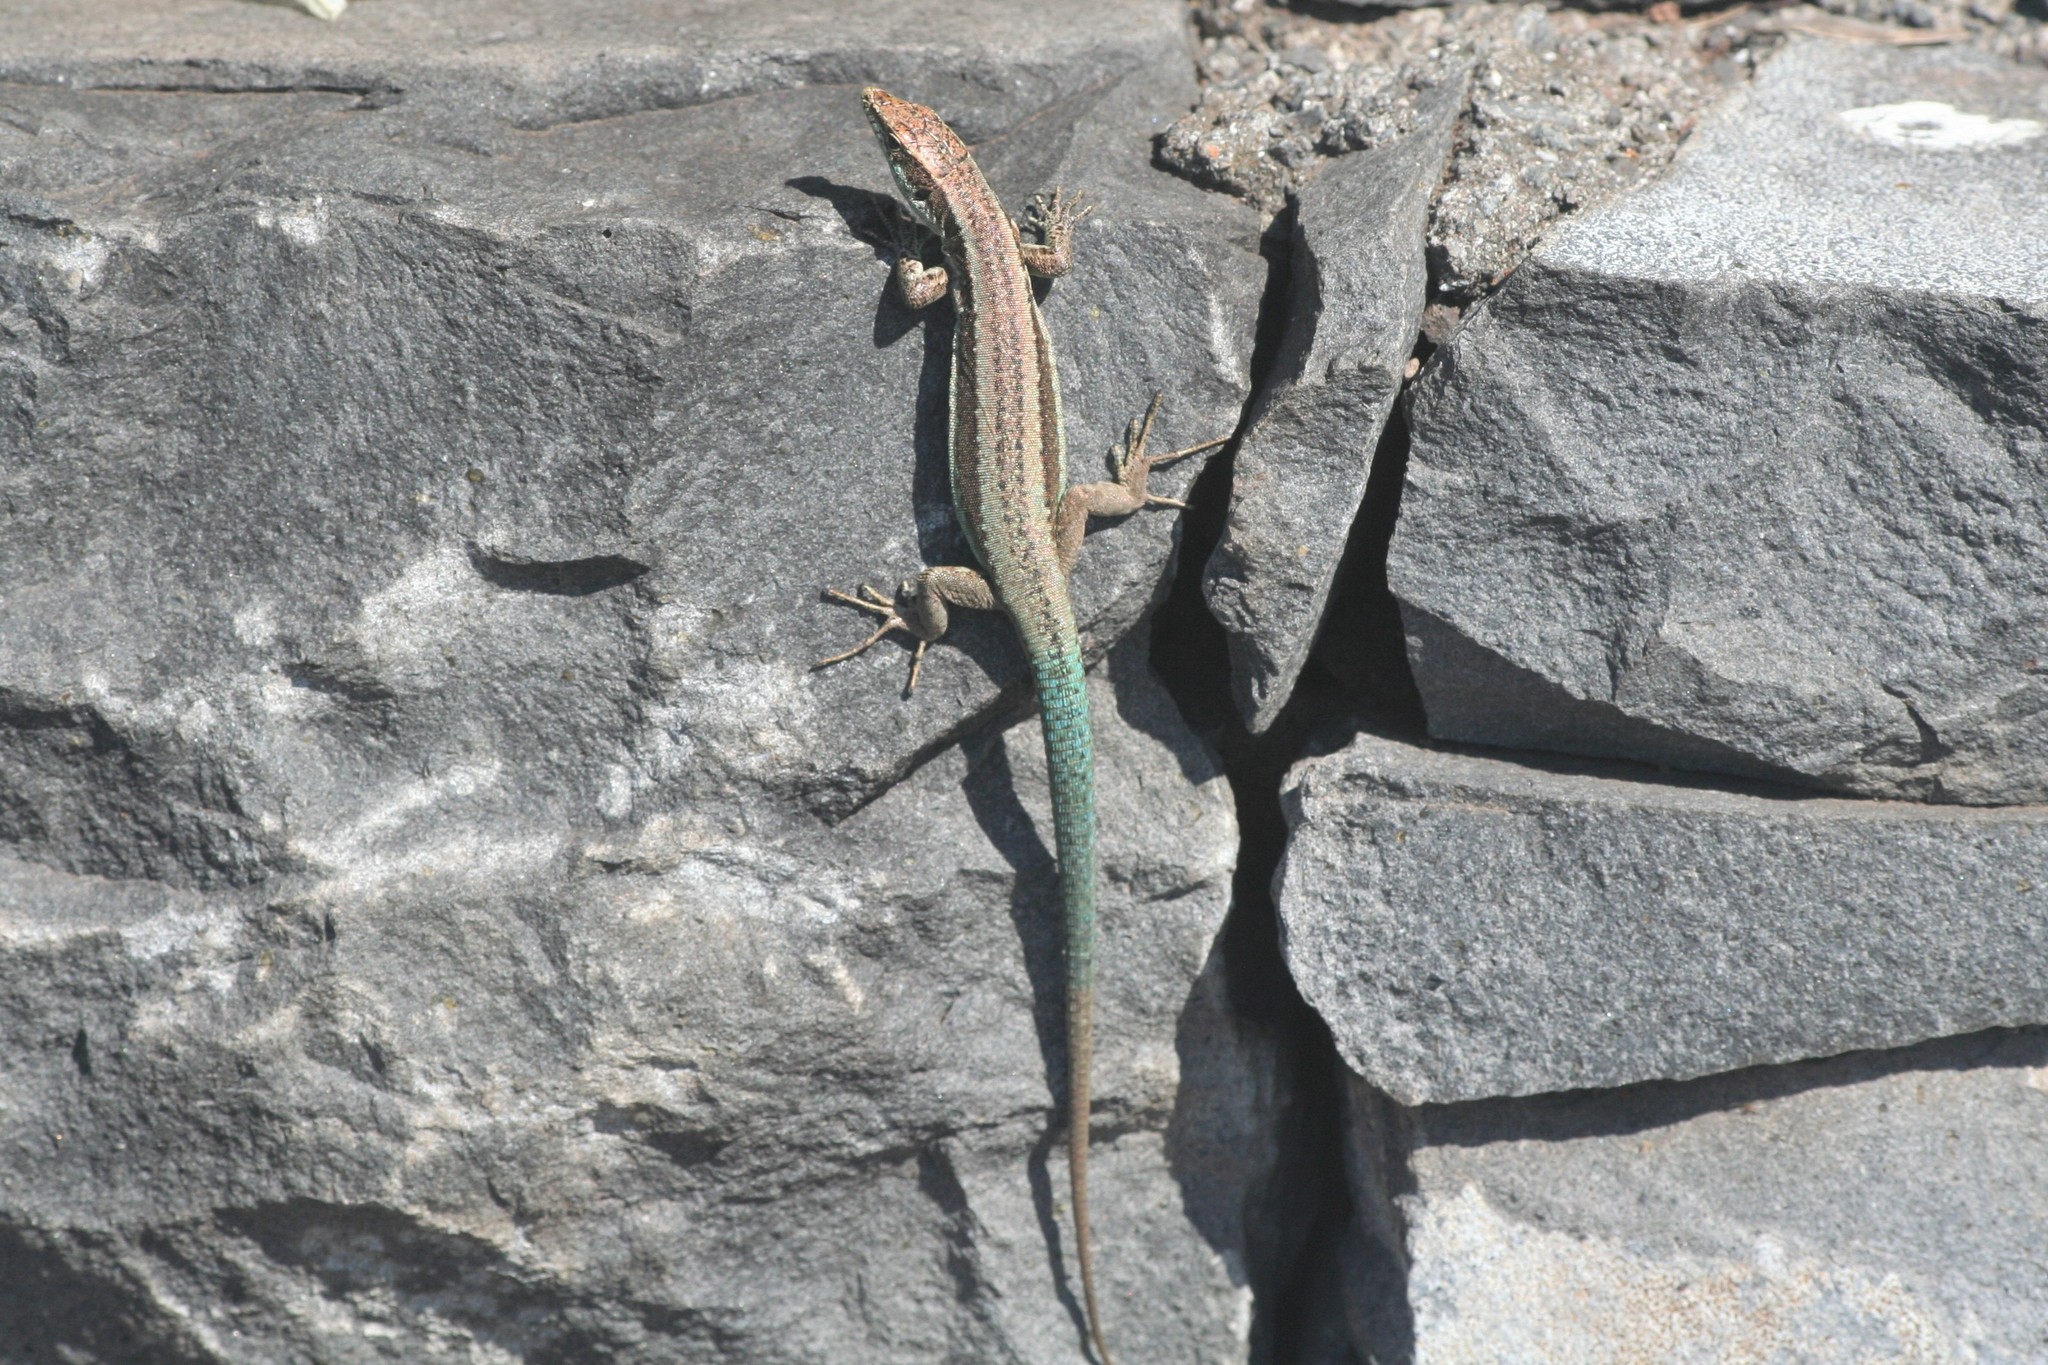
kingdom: Animalia
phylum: Chordata
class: Squamata
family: Lacertidae
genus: Teira
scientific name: Teira dugesii
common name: Madeira lizard
